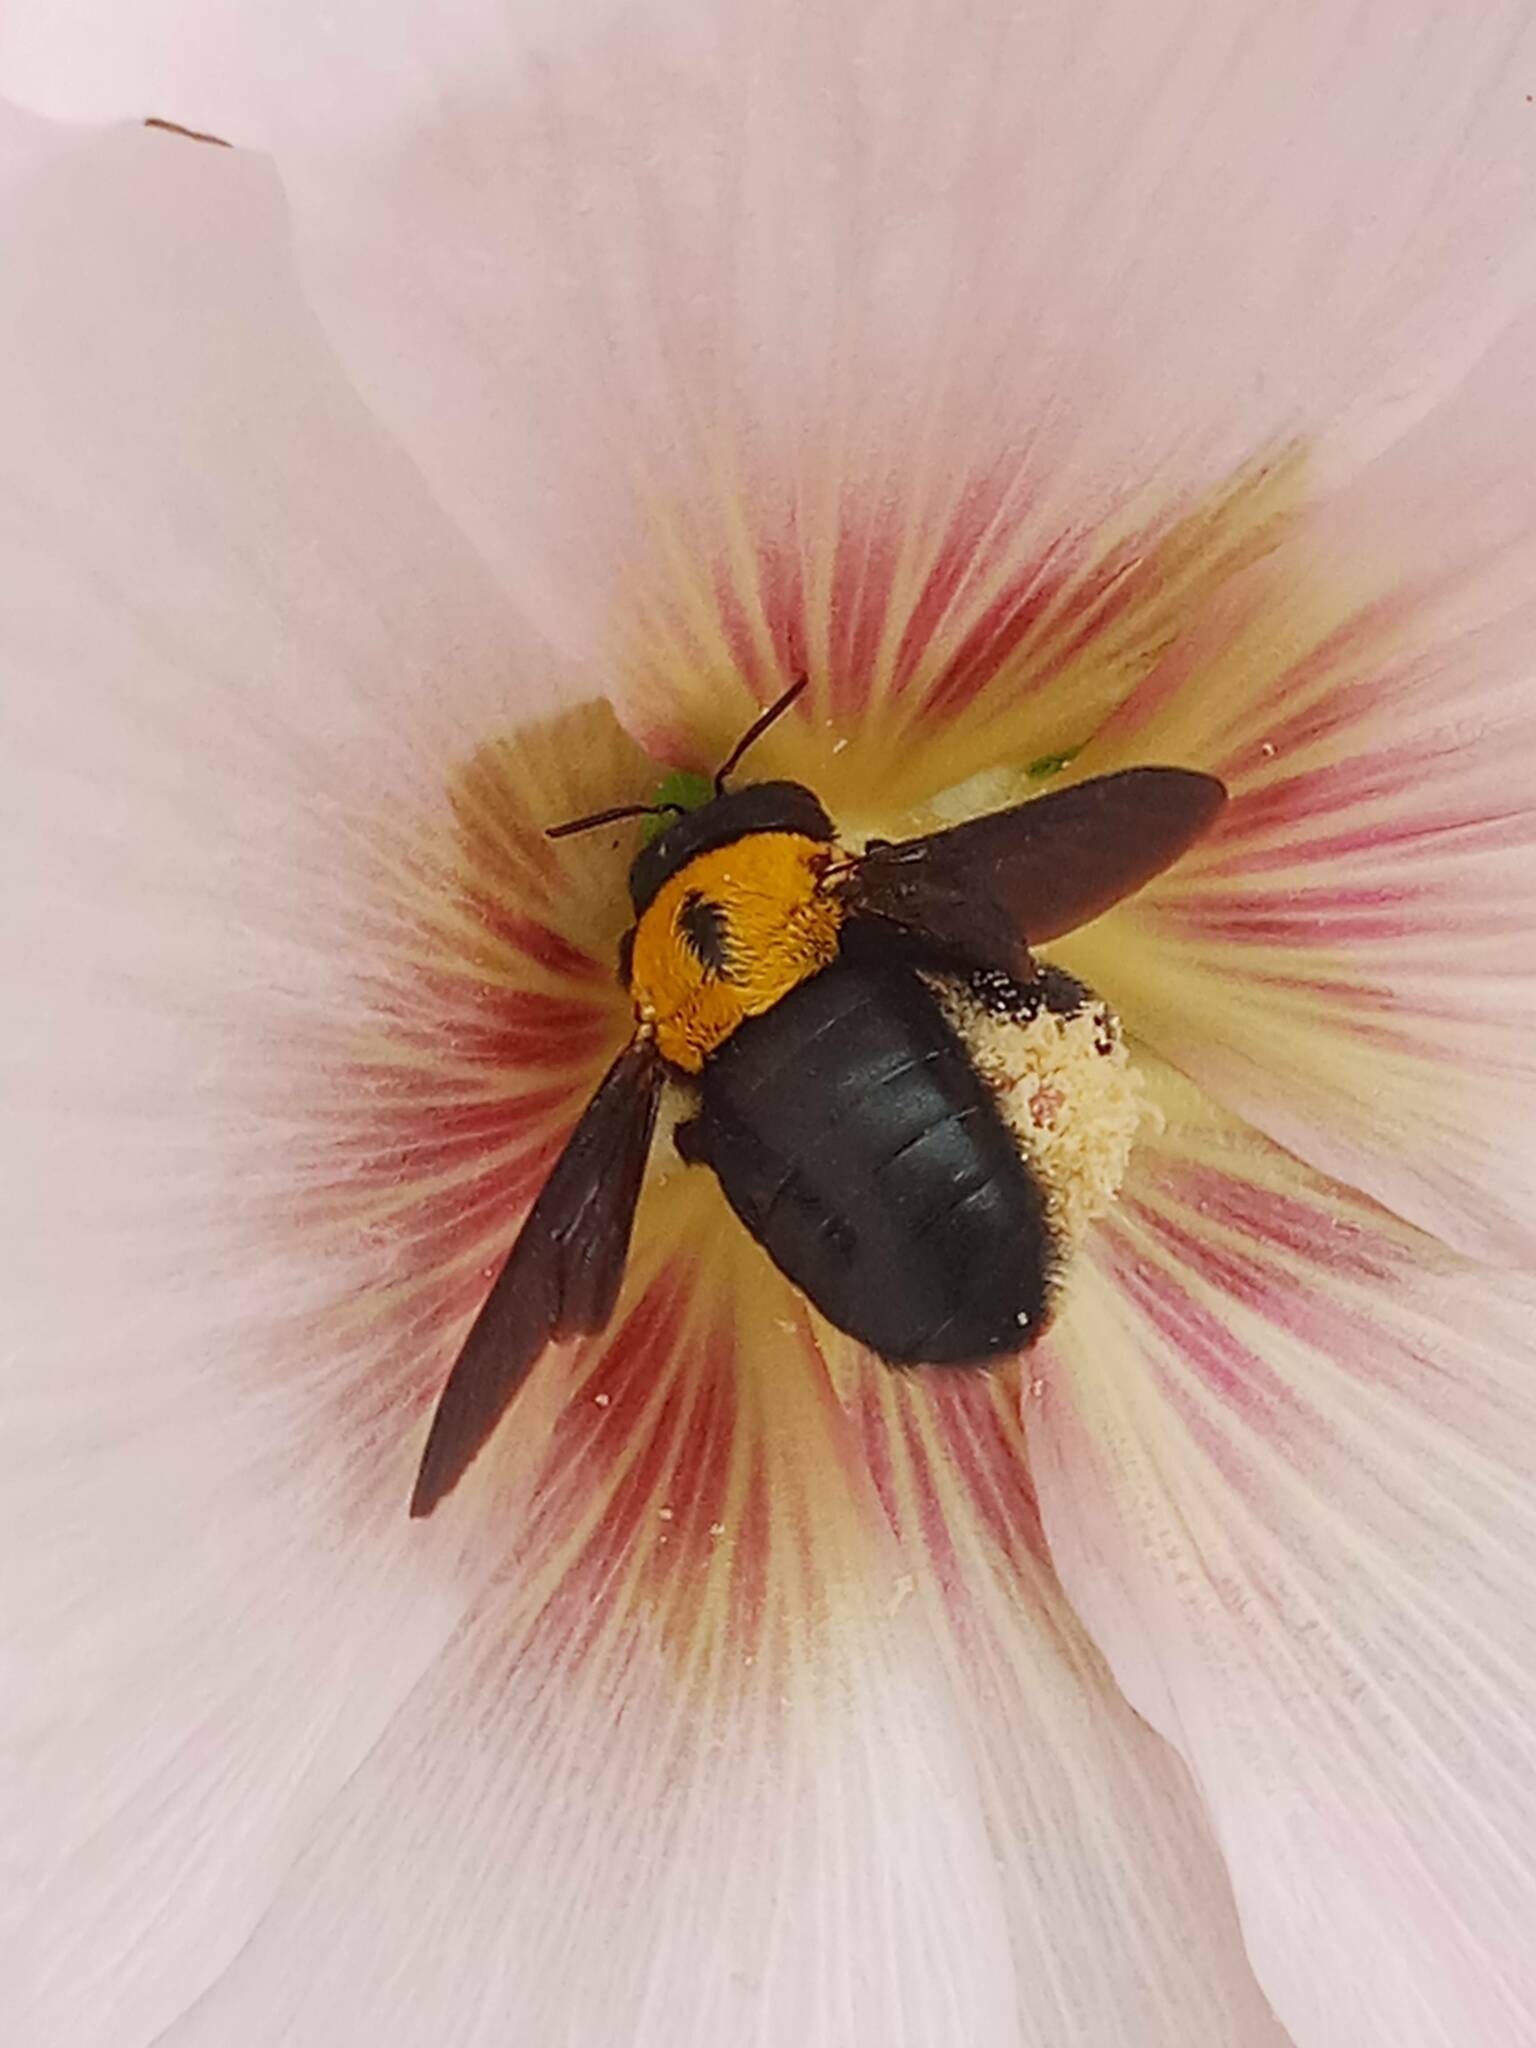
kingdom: Animalia
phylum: Arthropoda
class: Insecta
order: Hymenoptera
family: Apidae
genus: Xylocopa
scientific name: Xylocopa pubescens
